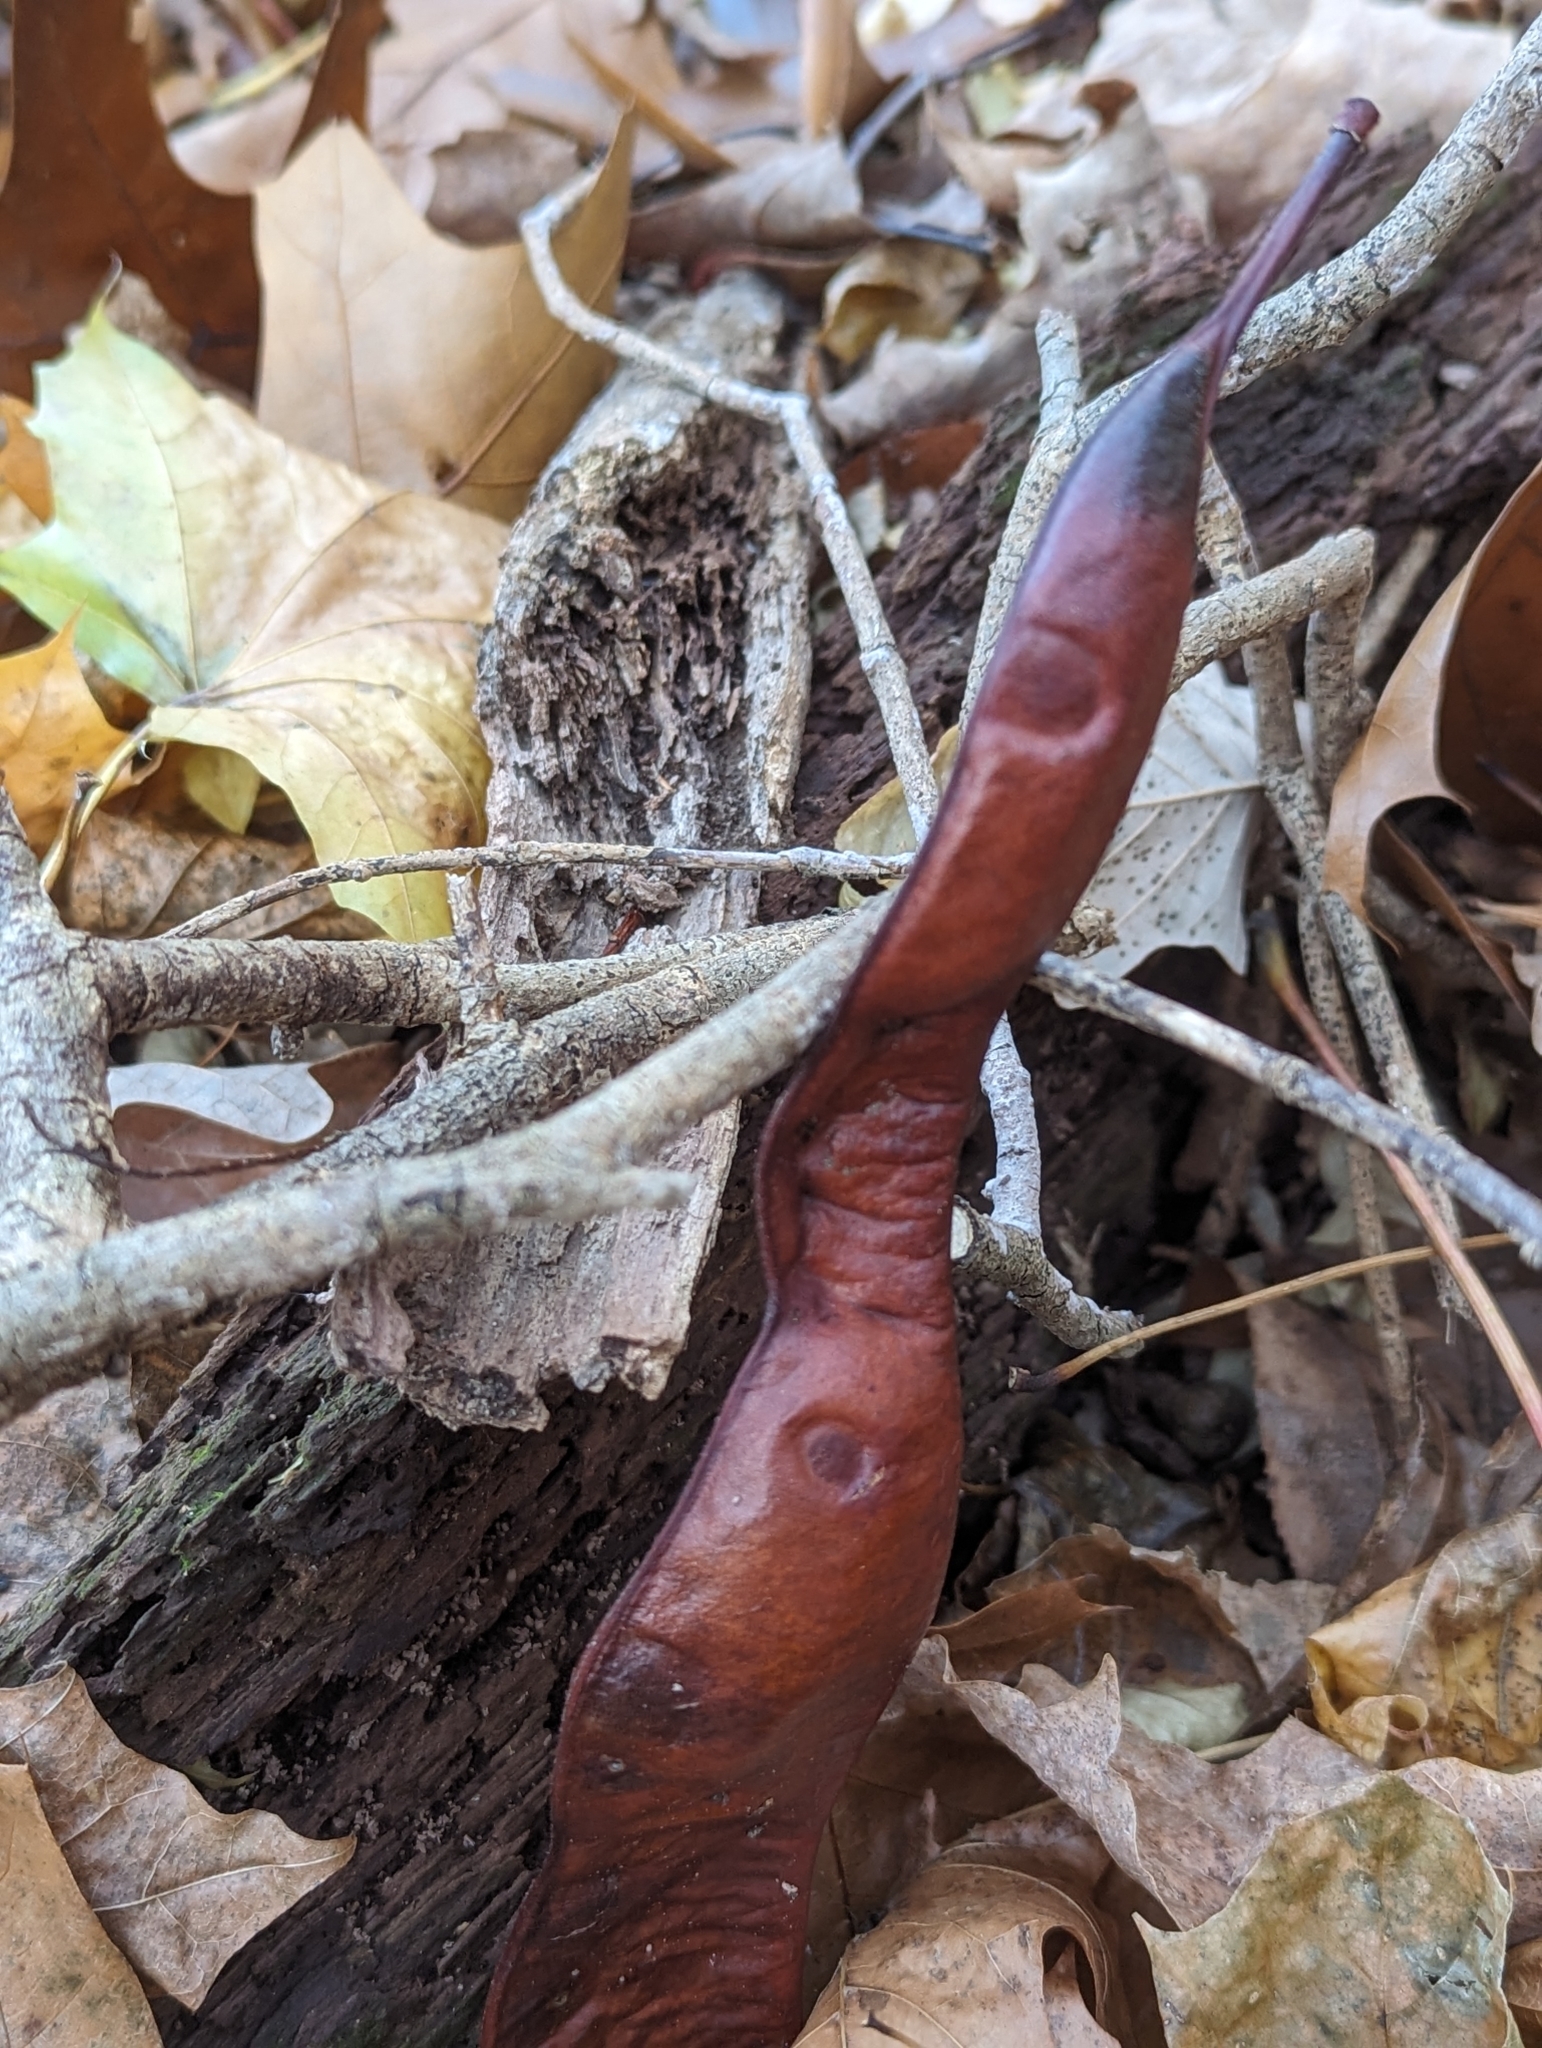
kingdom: Plantae
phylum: Tracheophyta
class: Magnoliopsida
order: Fabales
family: Fabaceae
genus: Gleditsia
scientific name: Gleditsia triacanthos
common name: Common honeylocust
